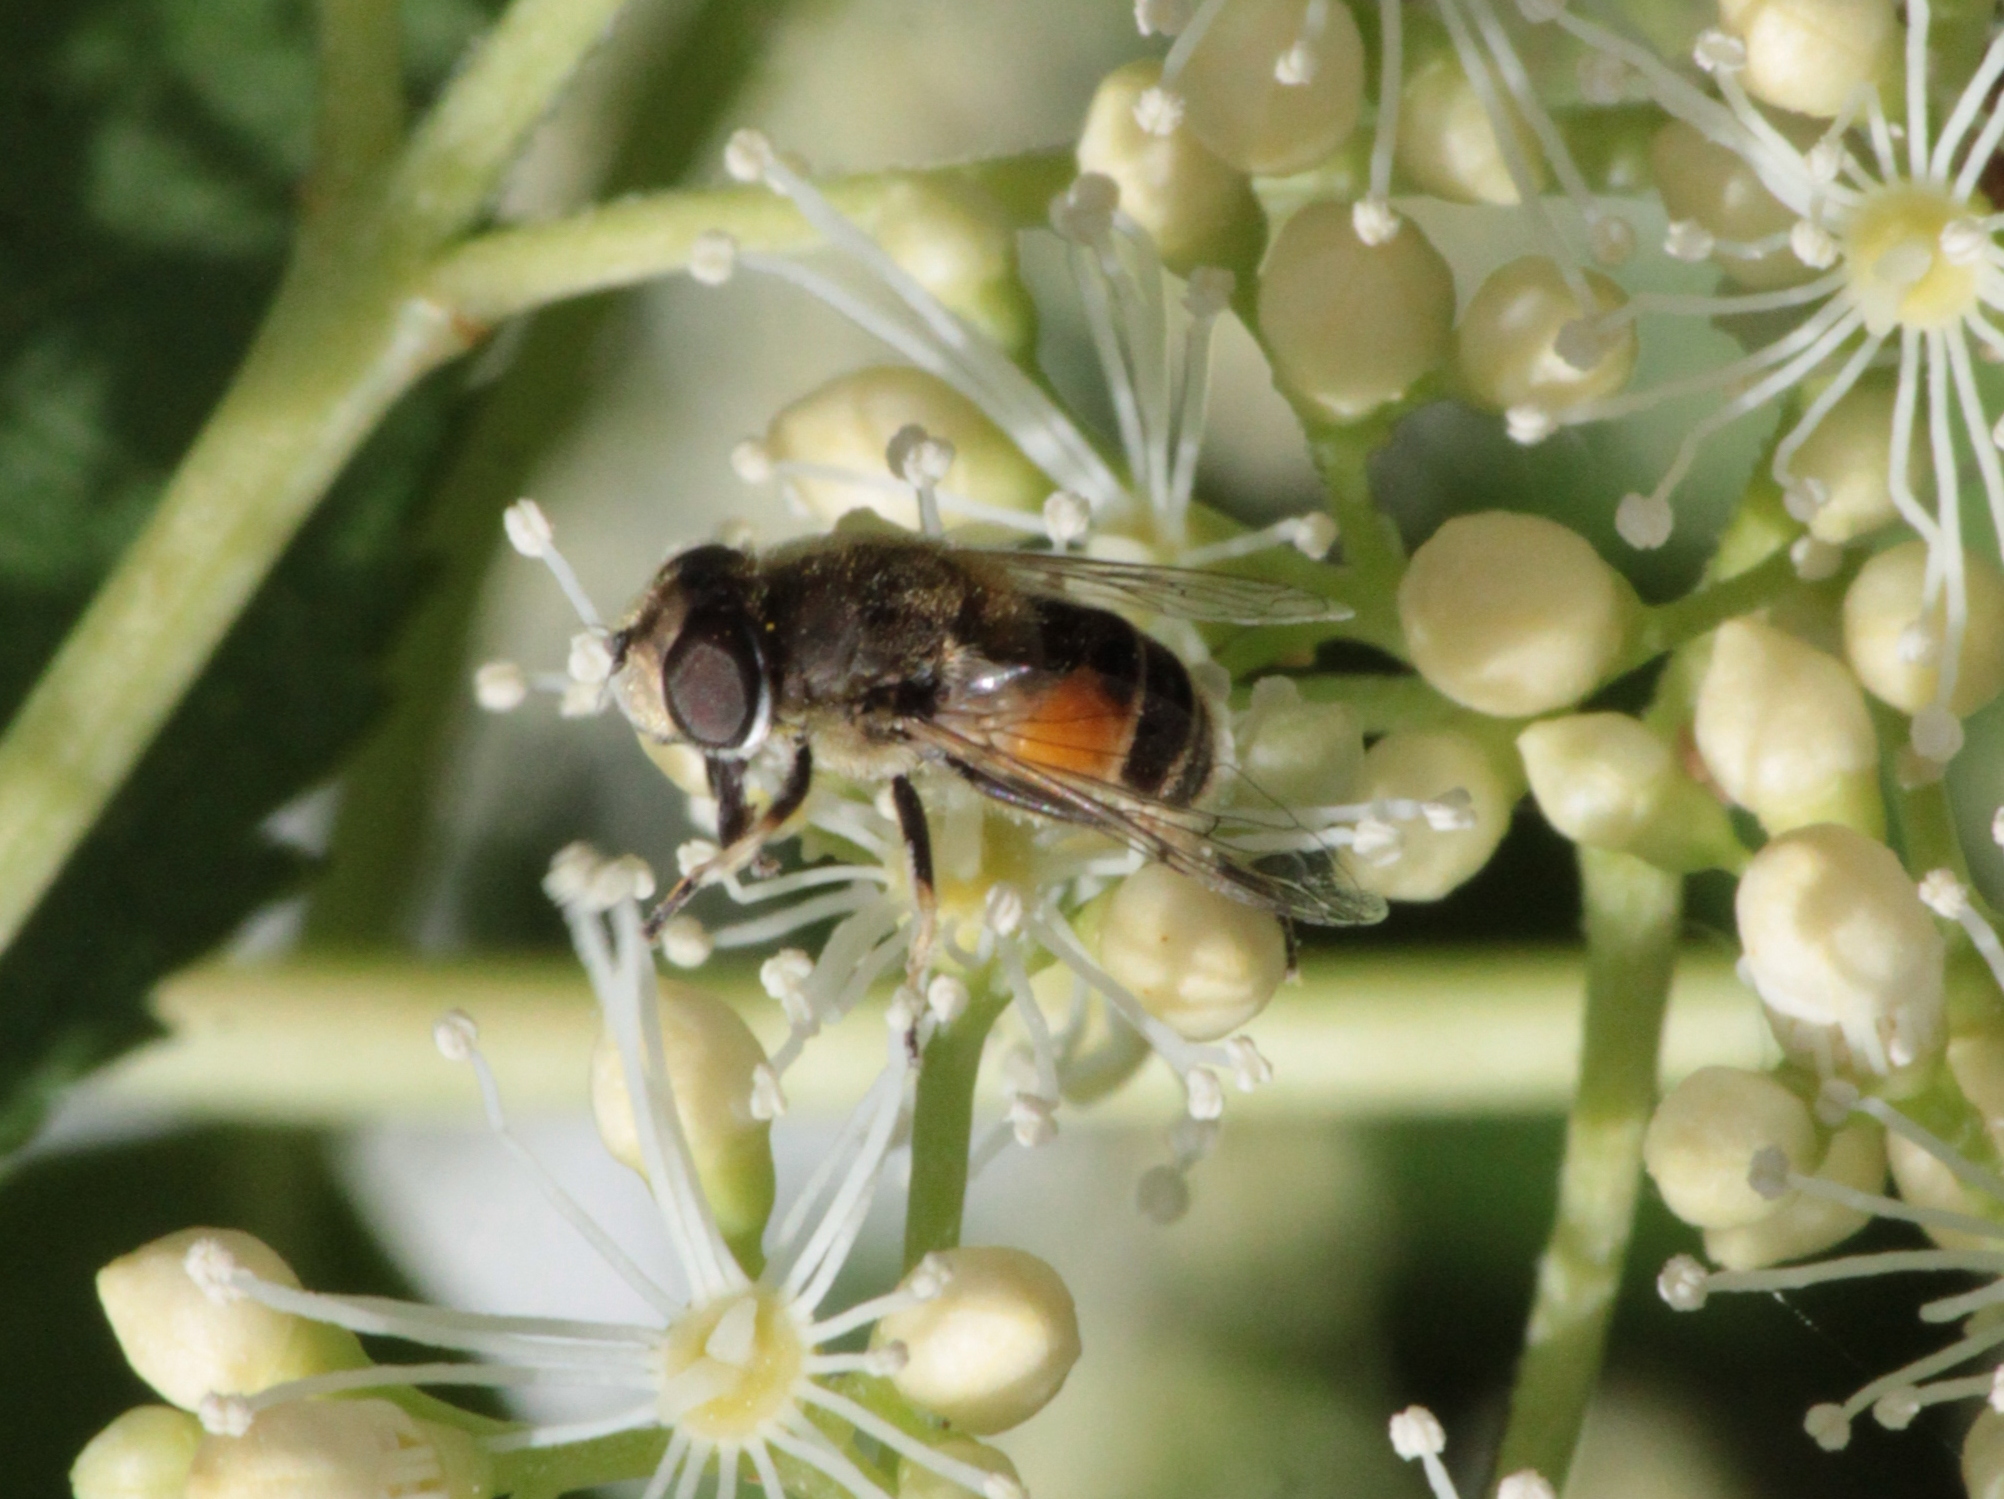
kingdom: Animalia
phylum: Arthropoda
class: Insecta
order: Diptera
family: Syrphidae
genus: Eristalis
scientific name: Eristalis arbustorum
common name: Hover fly
